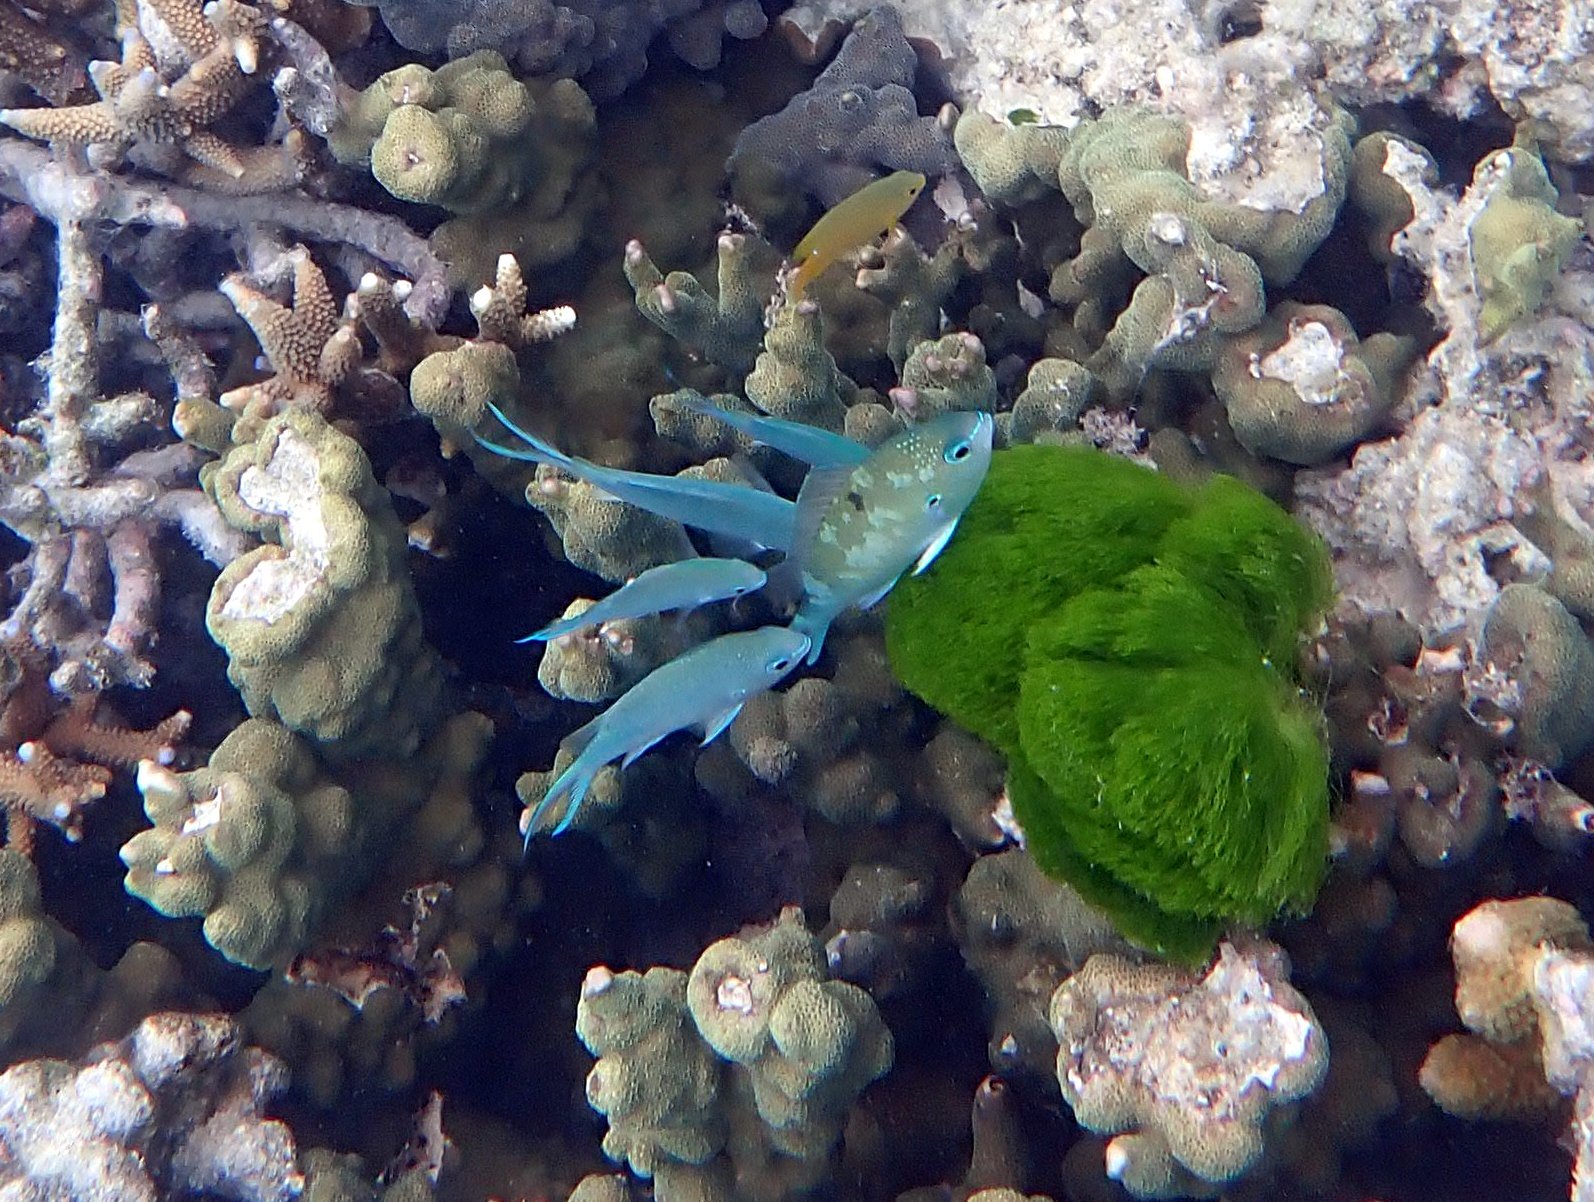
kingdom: Animalia
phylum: Chordata
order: Perciformes
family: Pomacentridae
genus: Chromis
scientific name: Chromis atripectoralis
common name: Black-axil chromis
